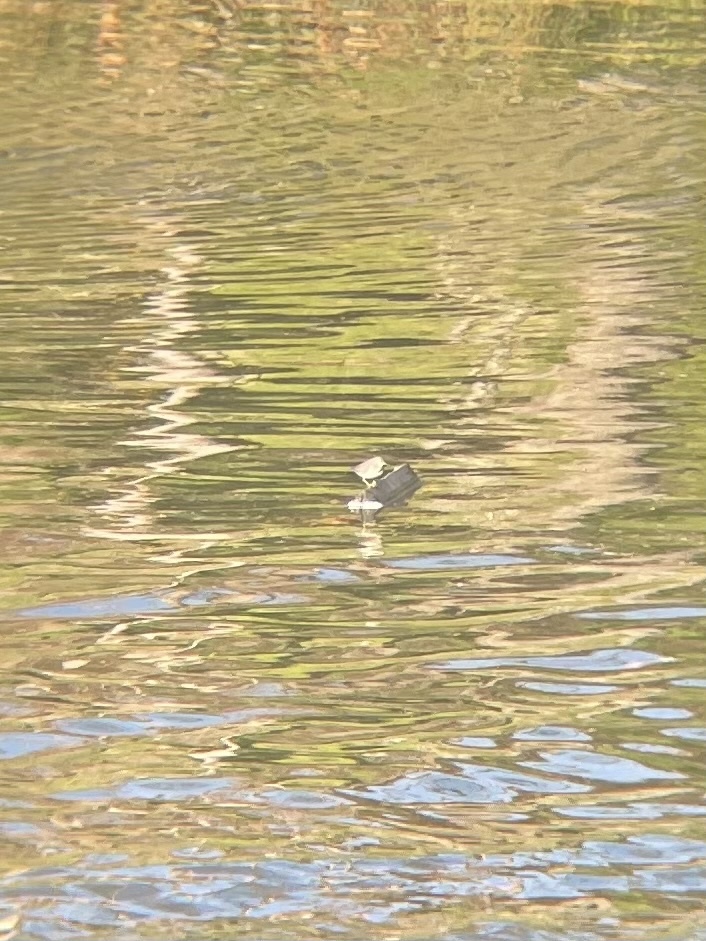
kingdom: Animalia
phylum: Chordata
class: Aves
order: Charadriiformes
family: Scolopacidae
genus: Actitis
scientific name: Actitis macularius
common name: Spotted sandpiper
